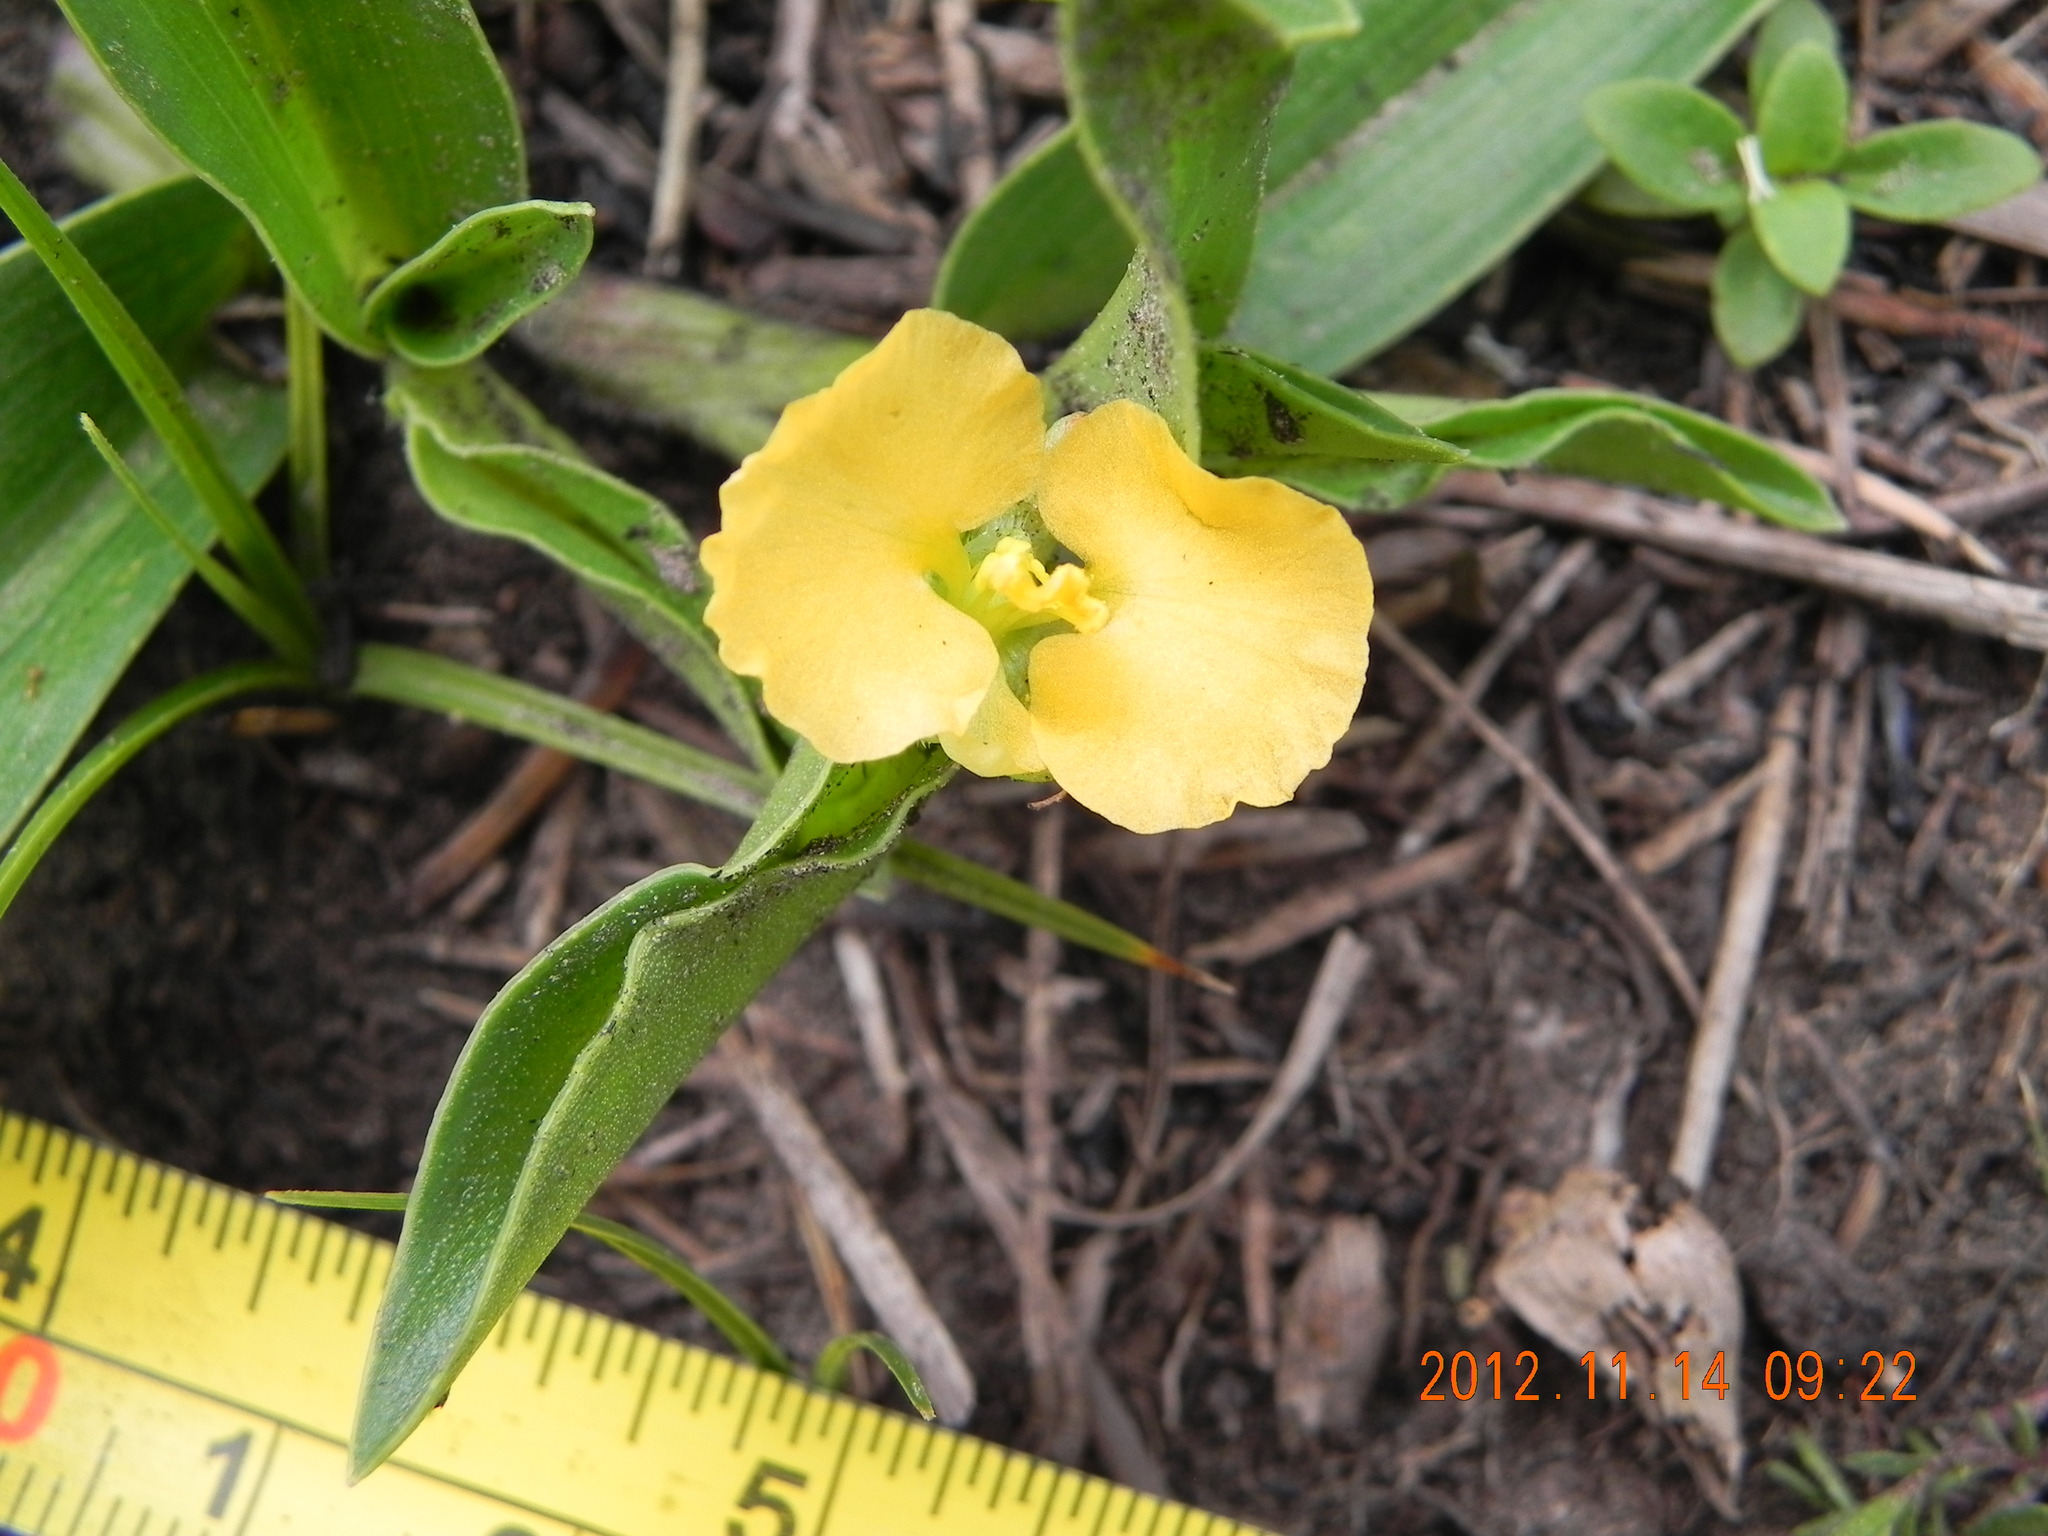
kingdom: Plantae
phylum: Tracheophyta
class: Liliopsida
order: Commelinales
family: Commelinaceae
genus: Commelina
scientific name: Commelina africana
